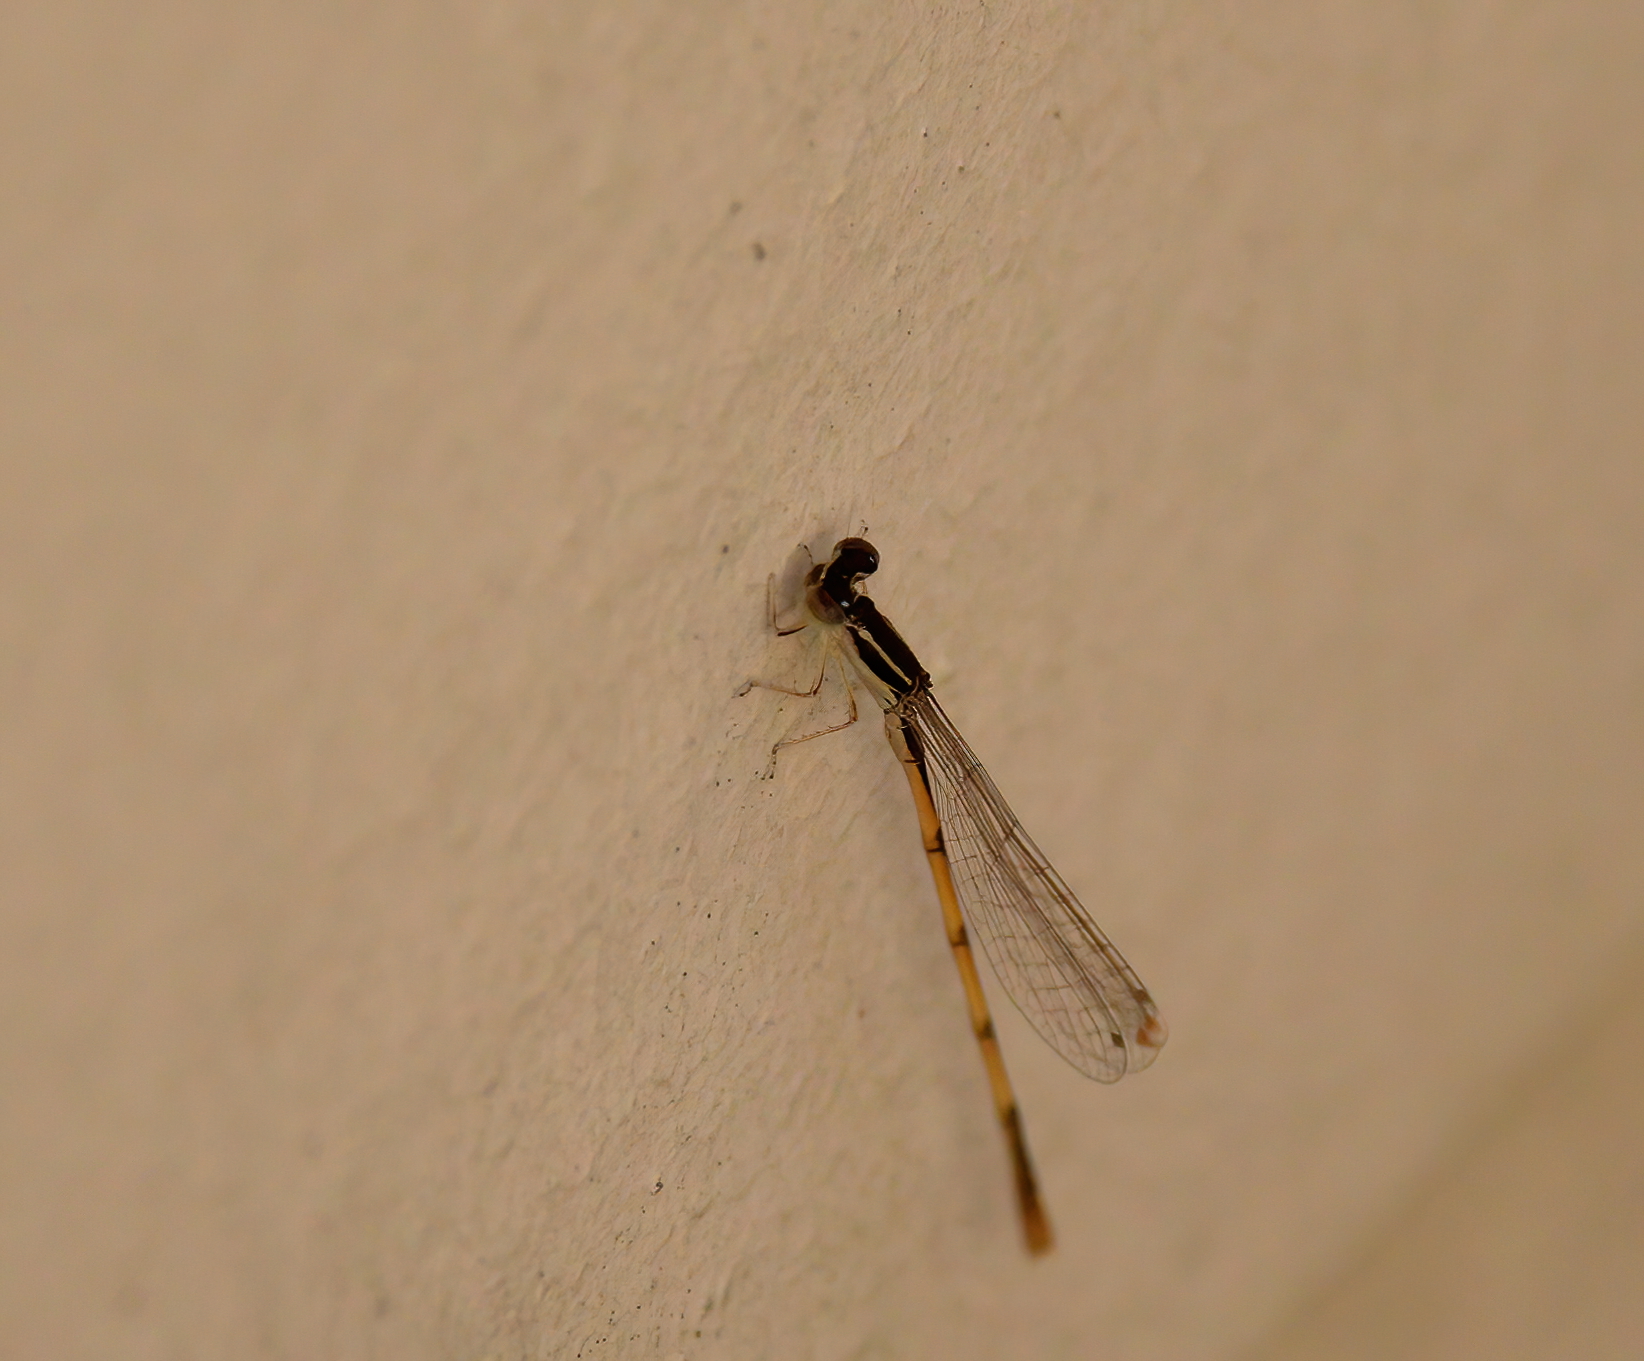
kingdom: Animalia
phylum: Arthropoda
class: Insecta
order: Odonata
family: Coenagrionidae
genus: Ischnura
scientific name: Ischnura hastata
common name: Citrine forktail
